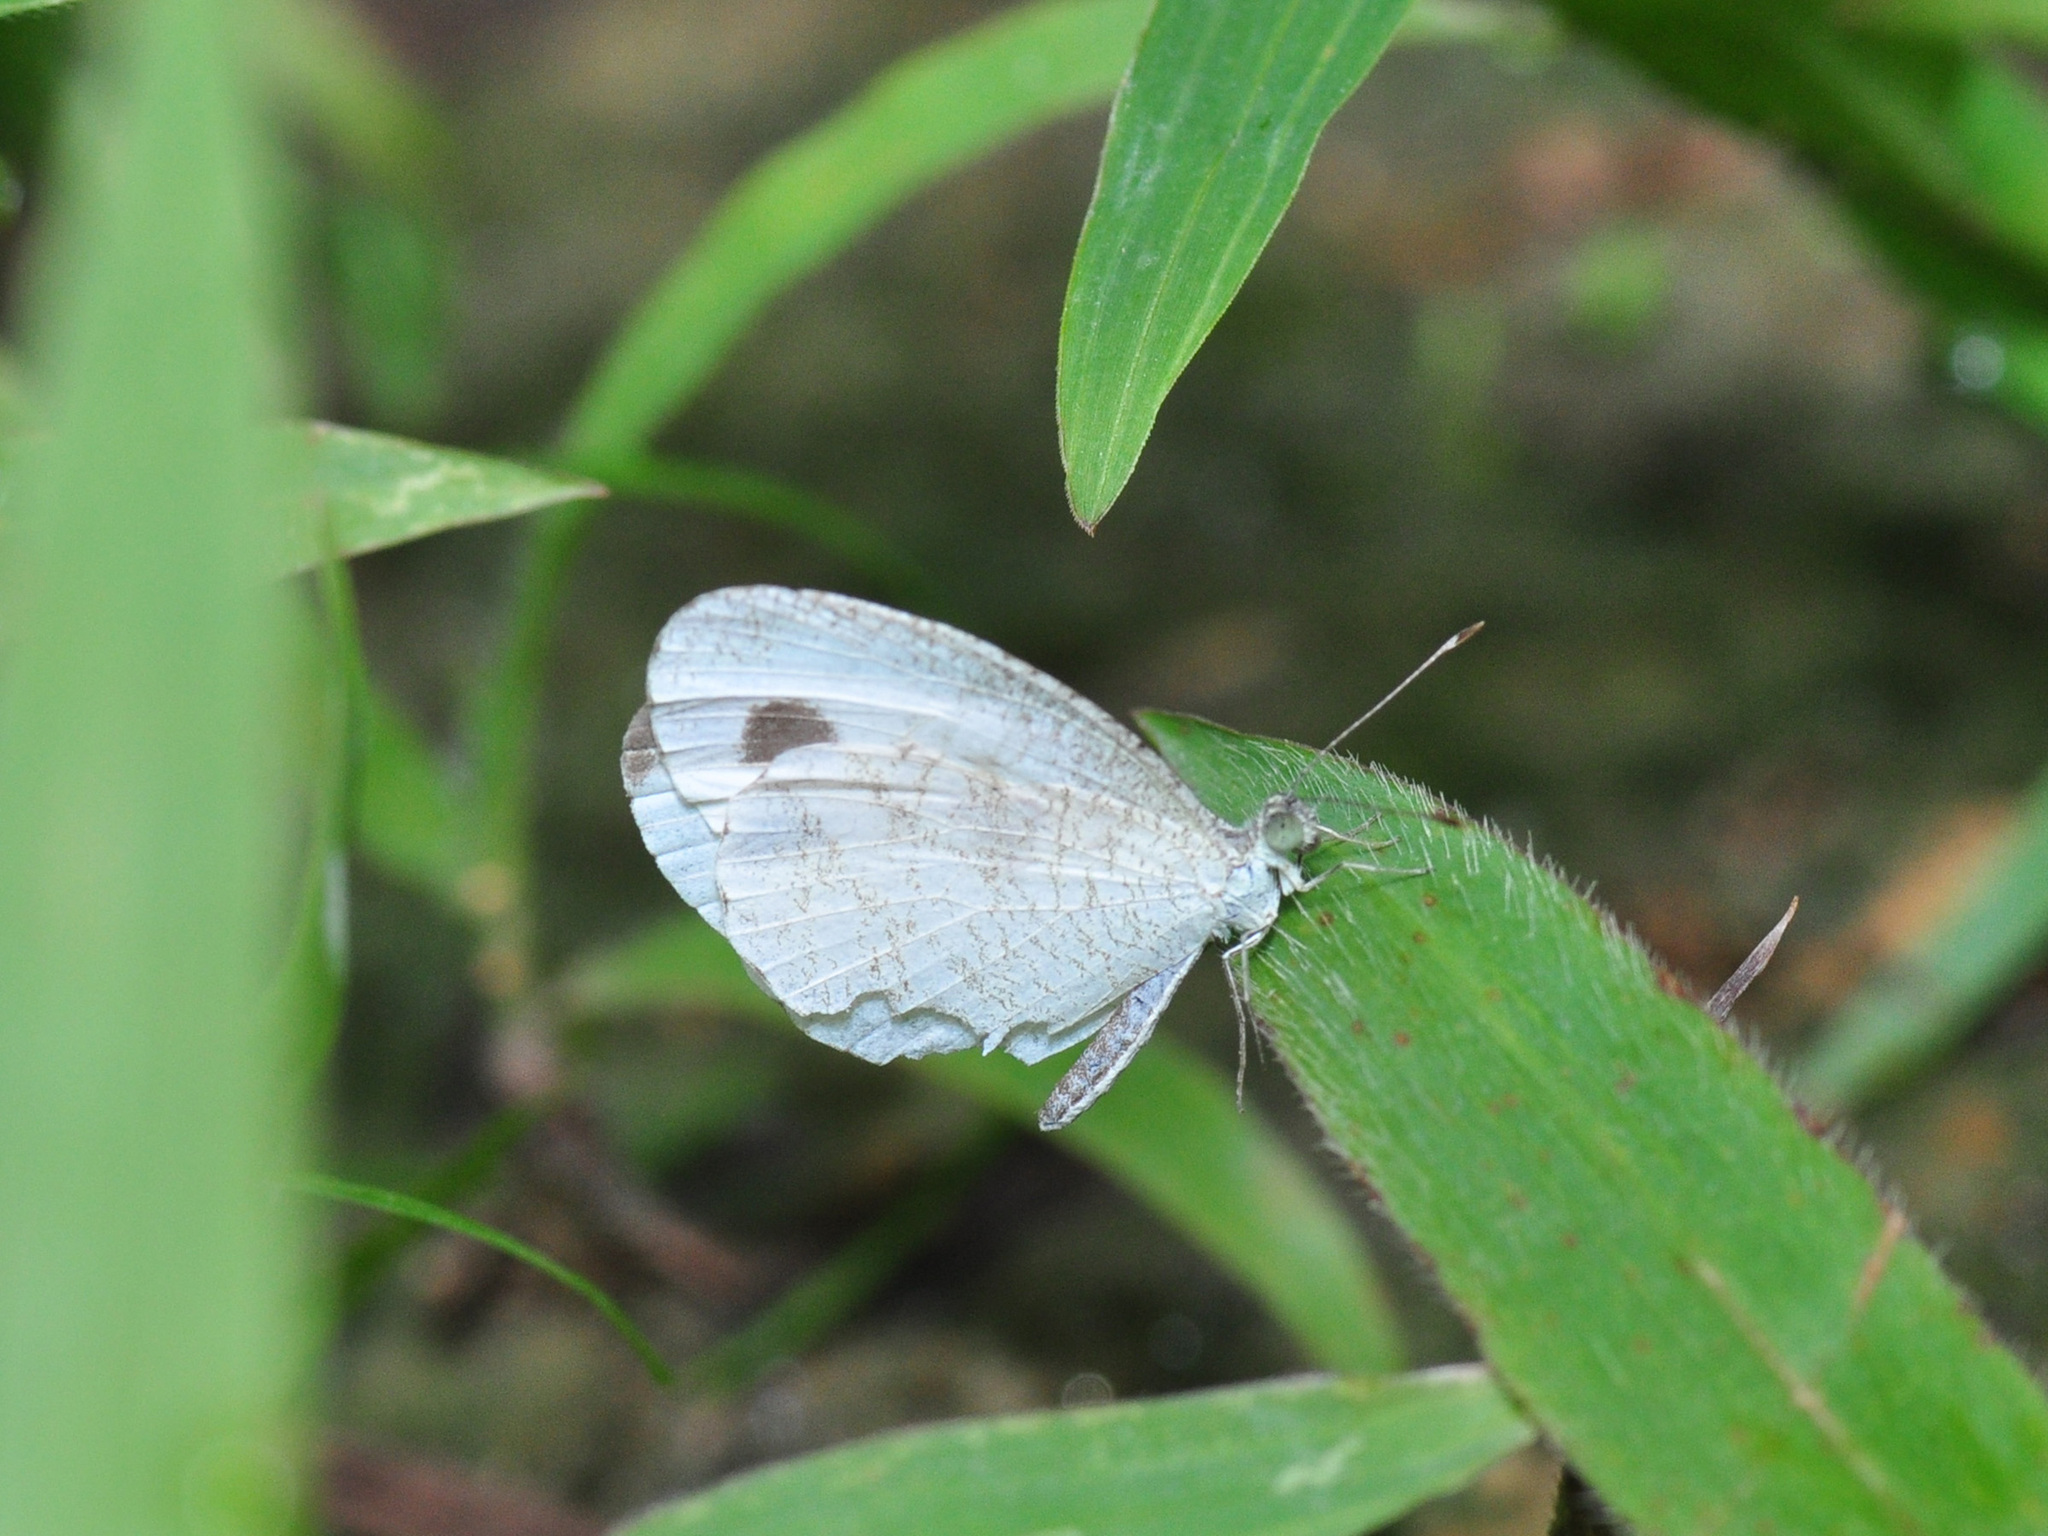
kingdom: Animalia
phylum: Arthropoda
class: Insecta
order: Lepidoptera
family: Pieridae
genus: Leptosia
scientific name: Leptosia nina
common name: Psyche
